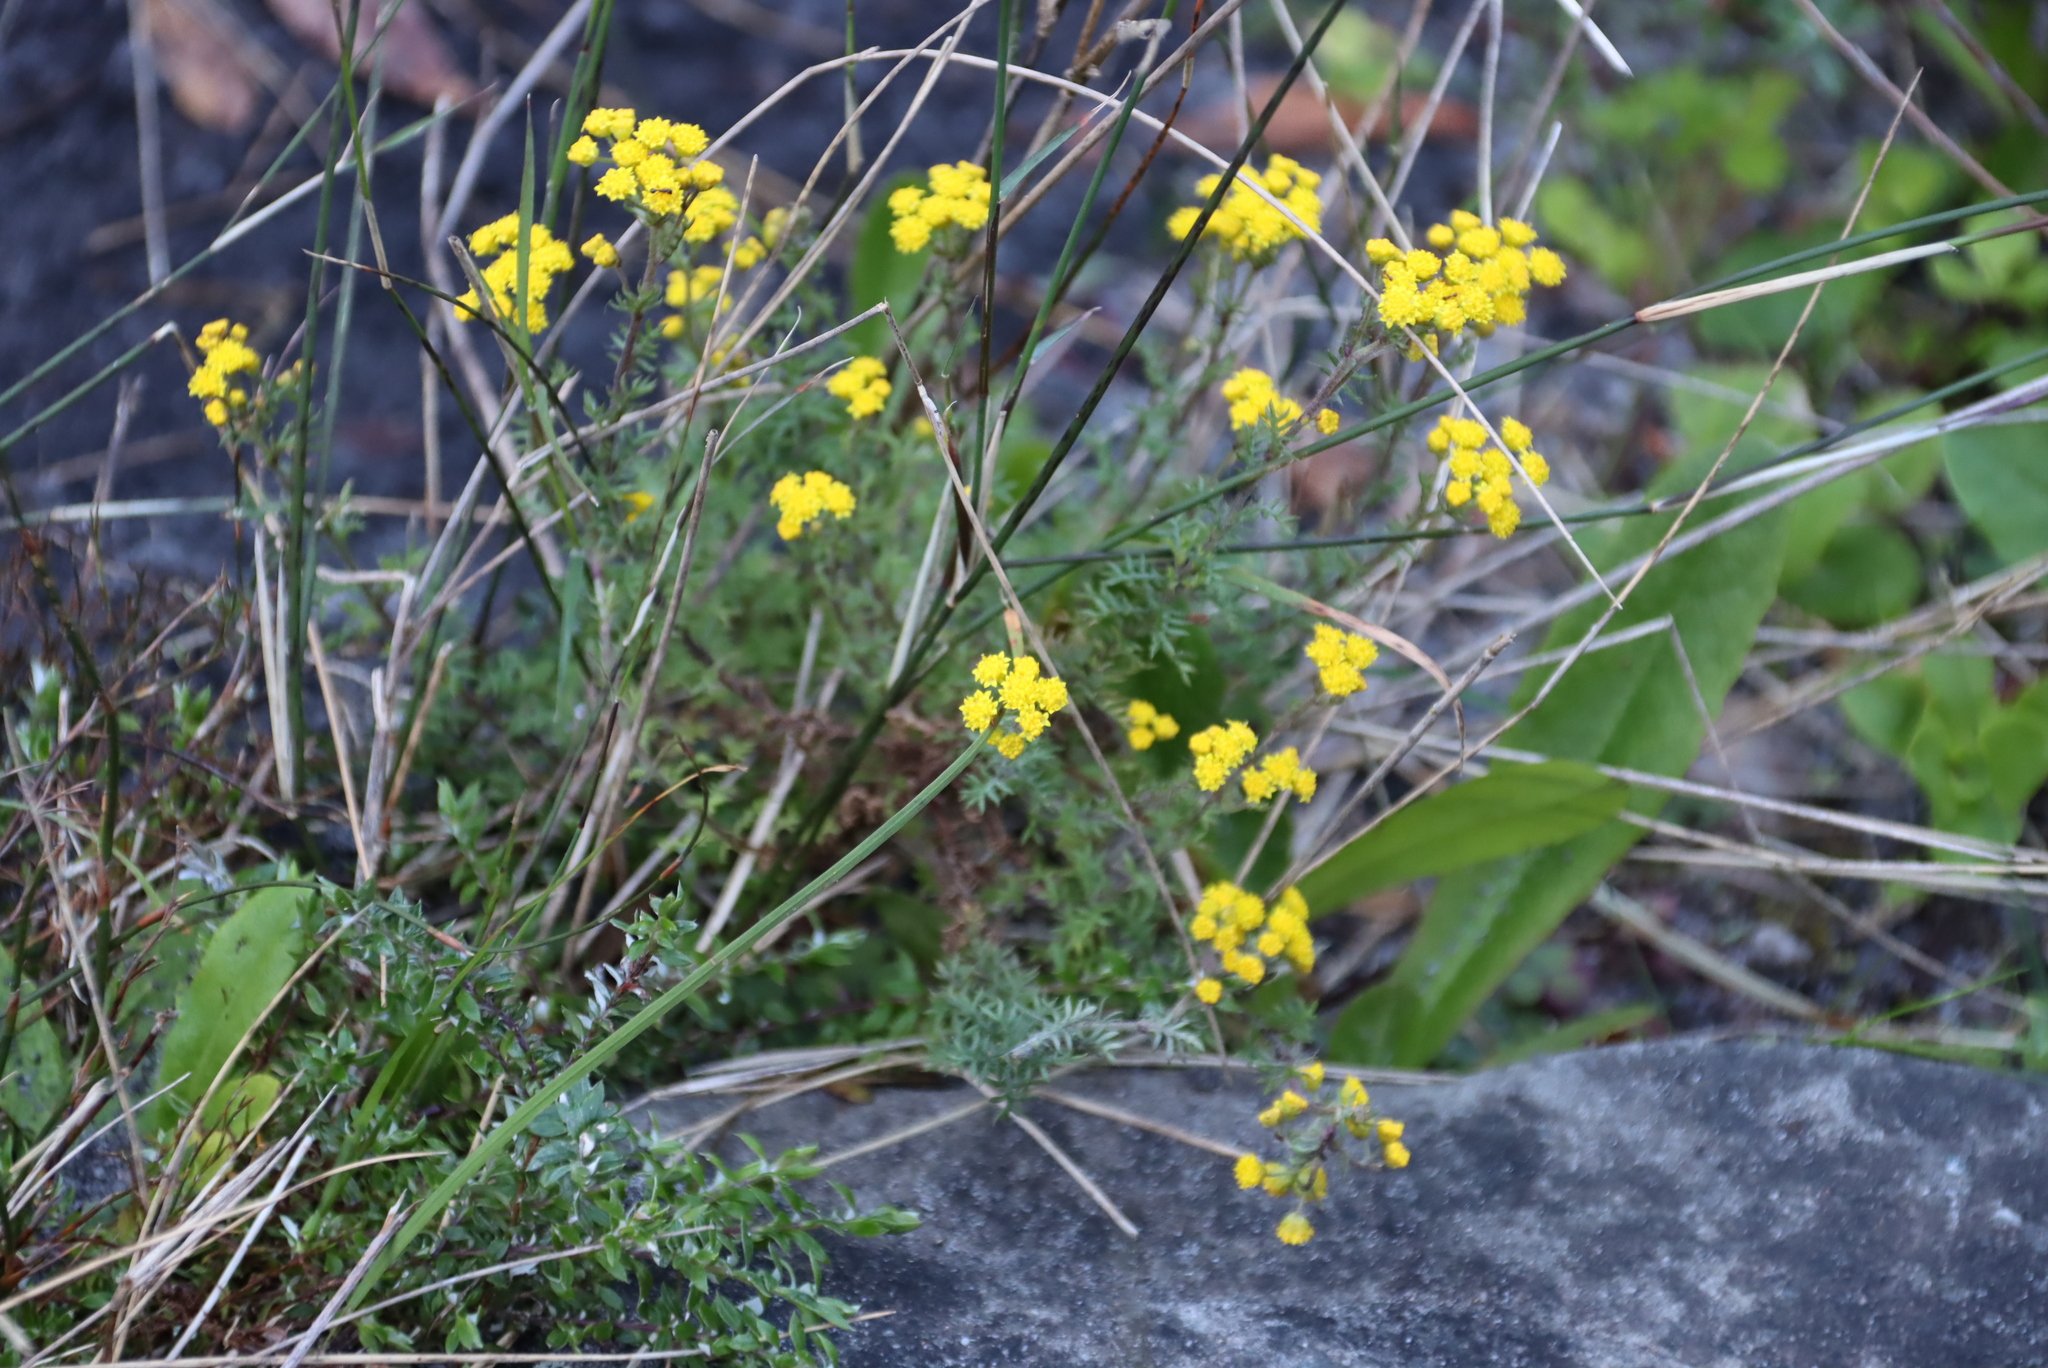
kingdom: Plantae
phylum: Tracheophyta
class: Magnoliopsida
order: Asterales
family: Asteraceae
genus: Hippia
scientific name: Hippia pilosa
